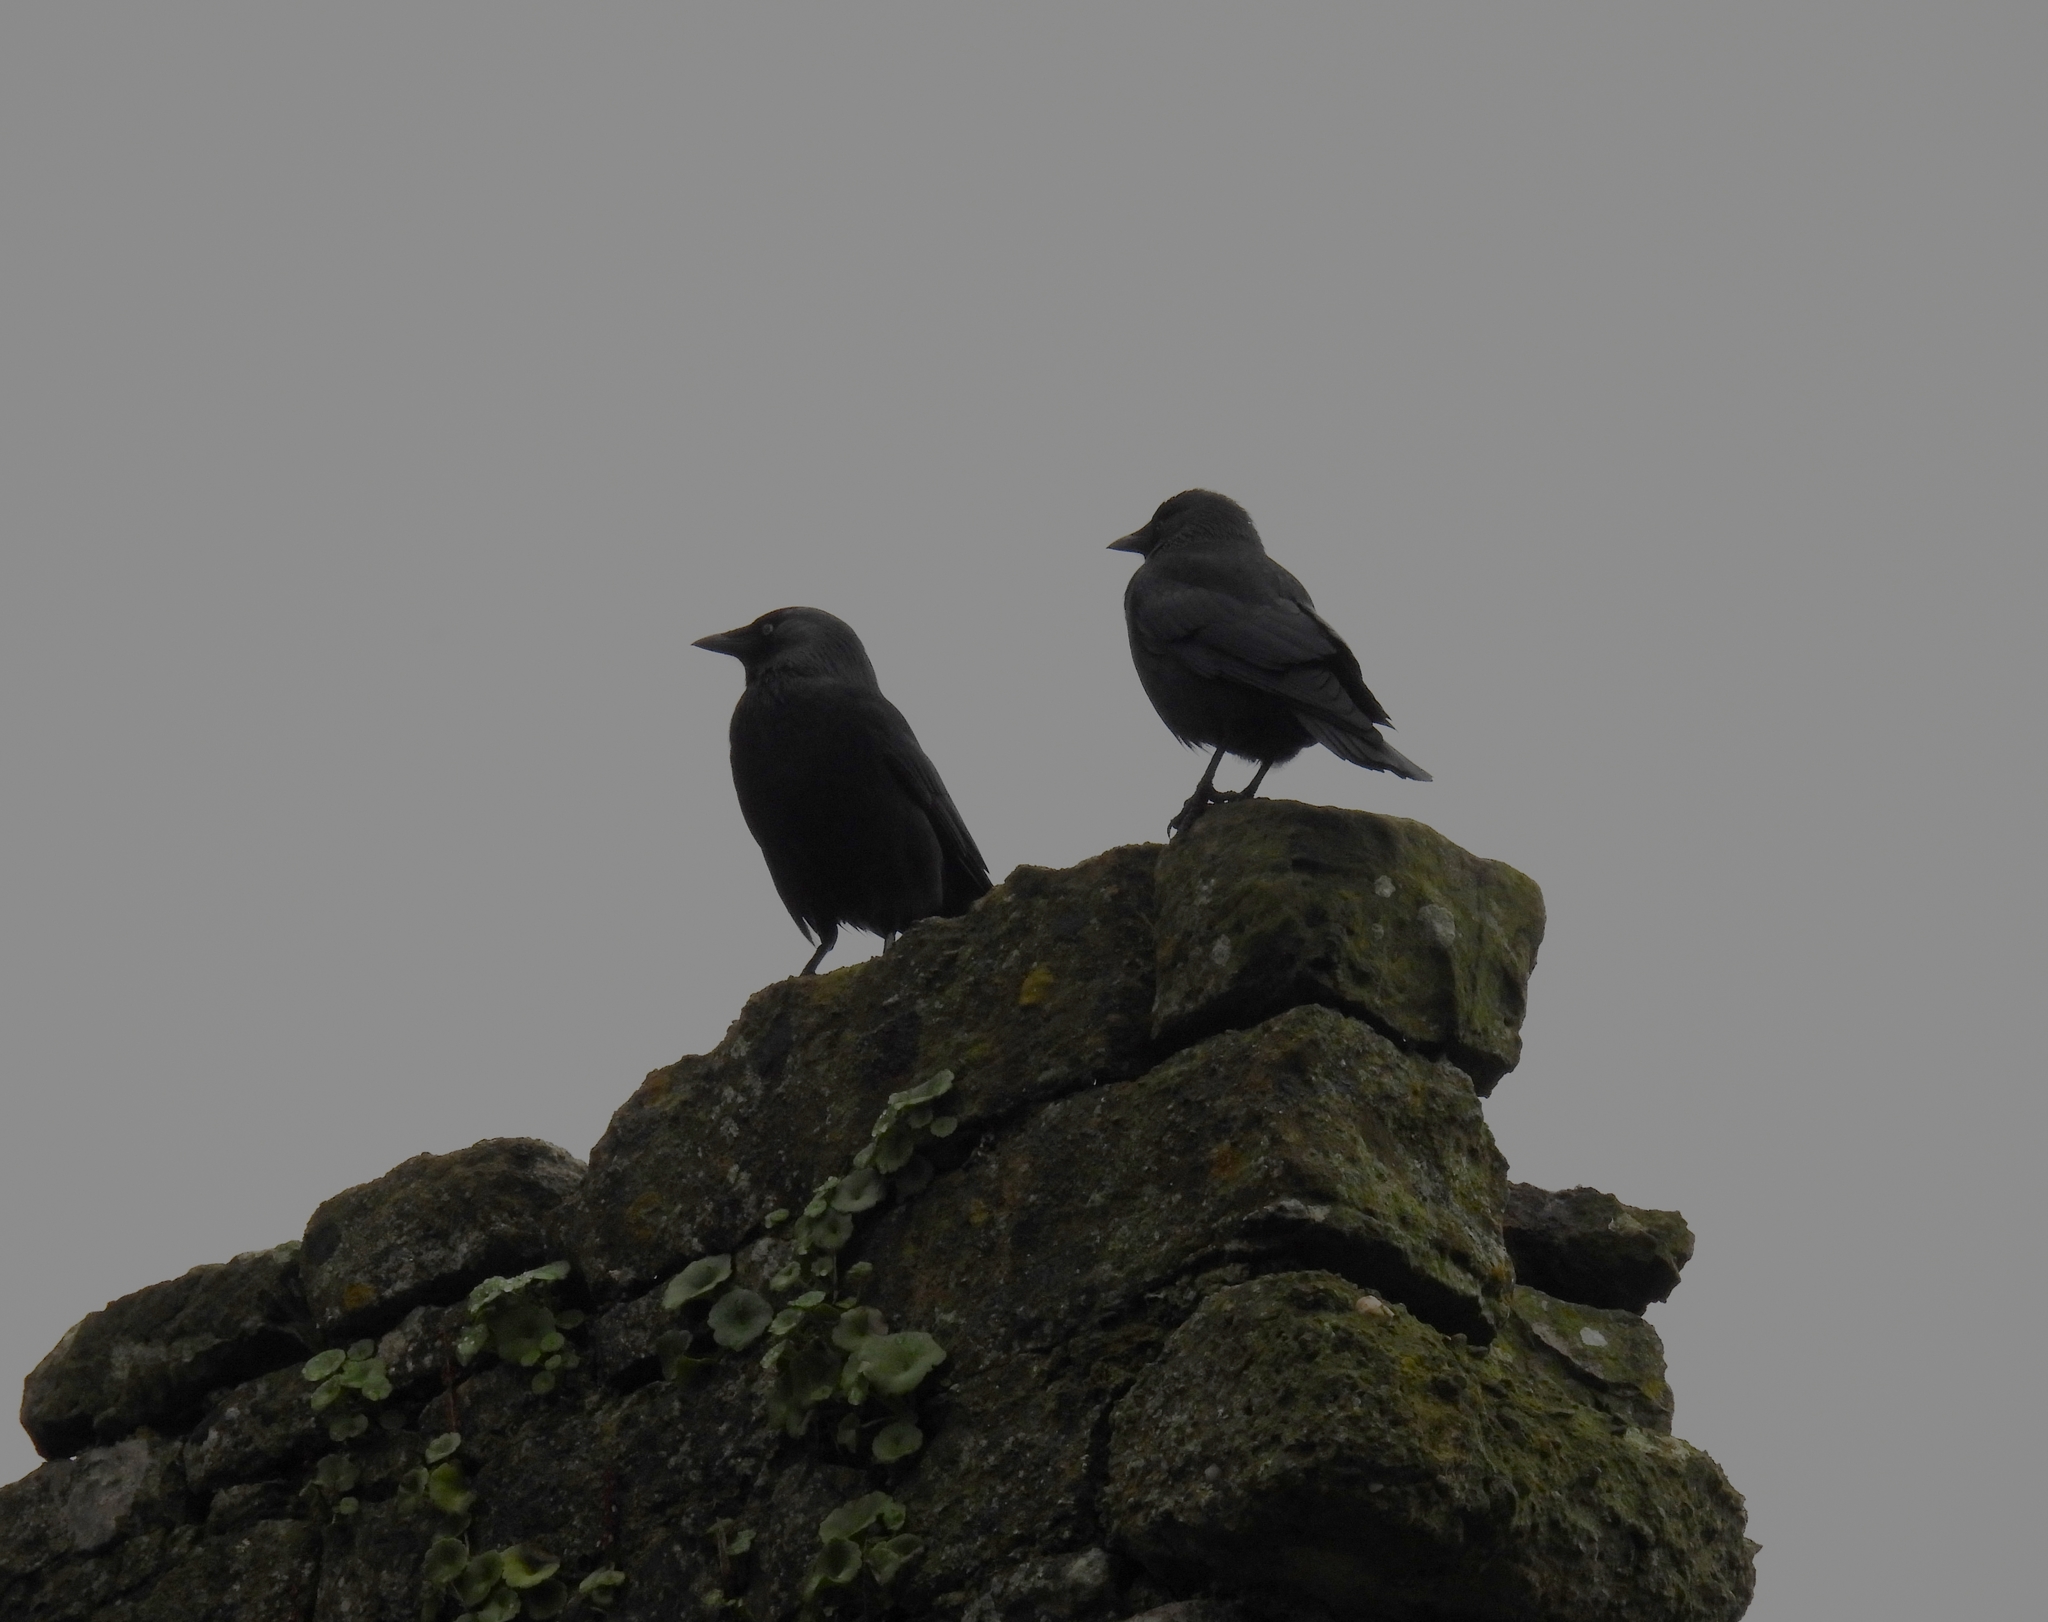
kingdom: Animalia
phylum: Chordata
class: Aves
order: Passeriformes
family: Corvidae
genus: Coloeus
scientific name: Coloeus monedula
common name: Western jackdaw
